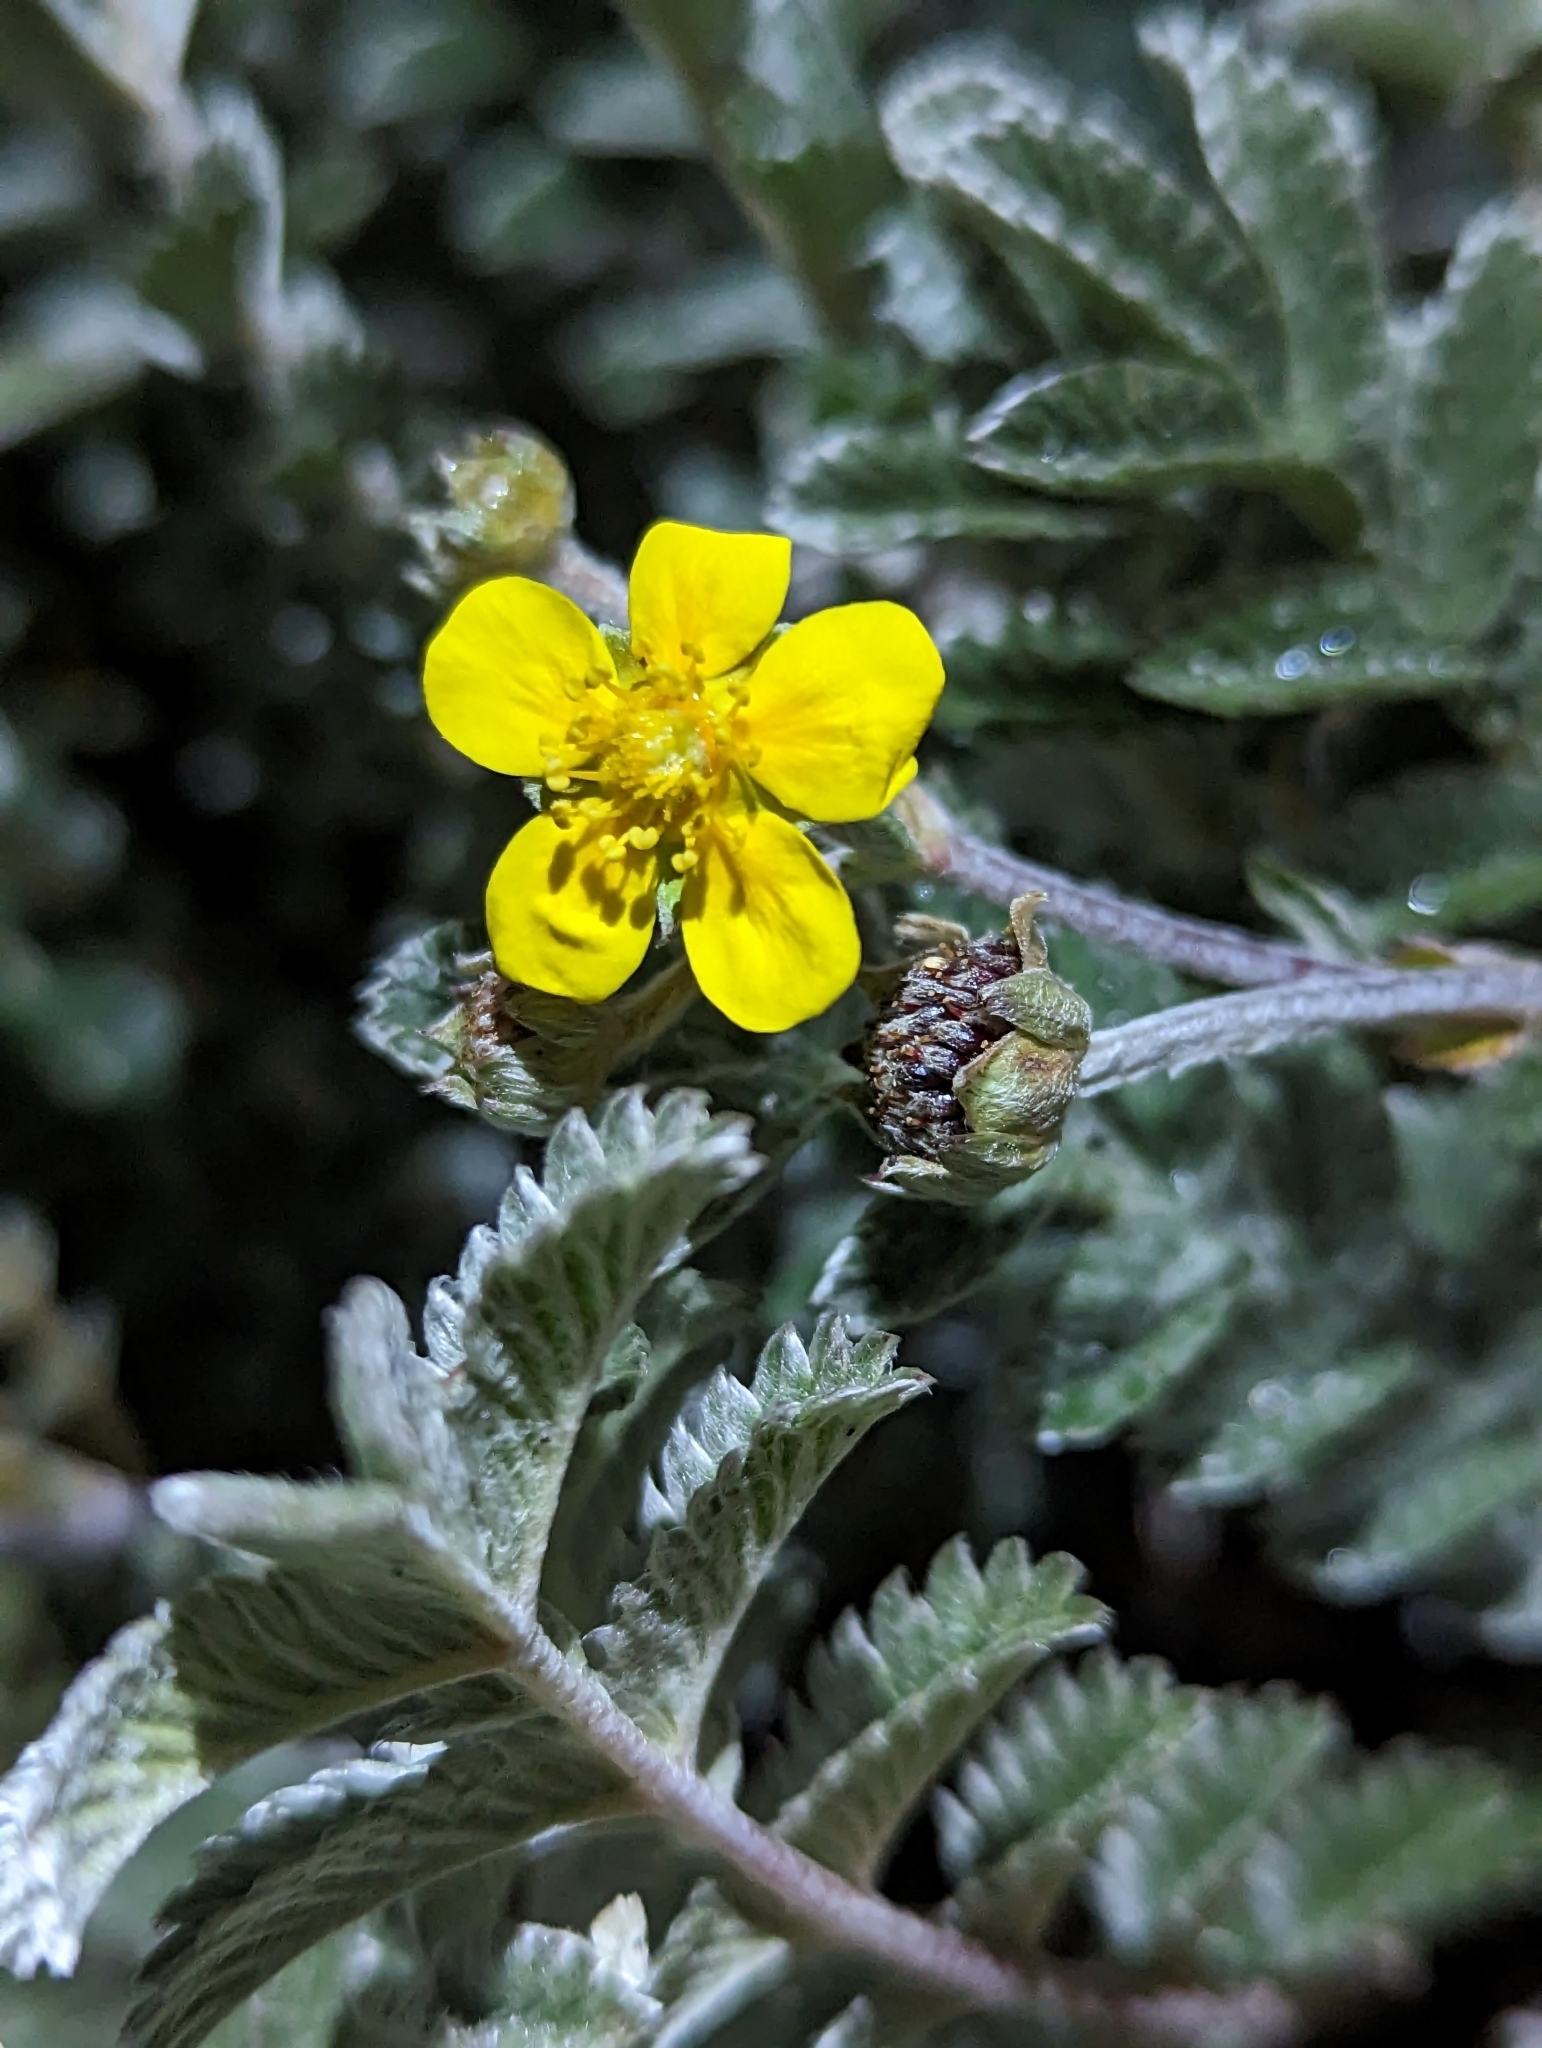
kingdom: Plantae
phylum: Tracheophyta
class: Magnoliopsida
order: Rosales
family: Rosaceae
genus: Argentina
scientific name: Argentina borneensis
